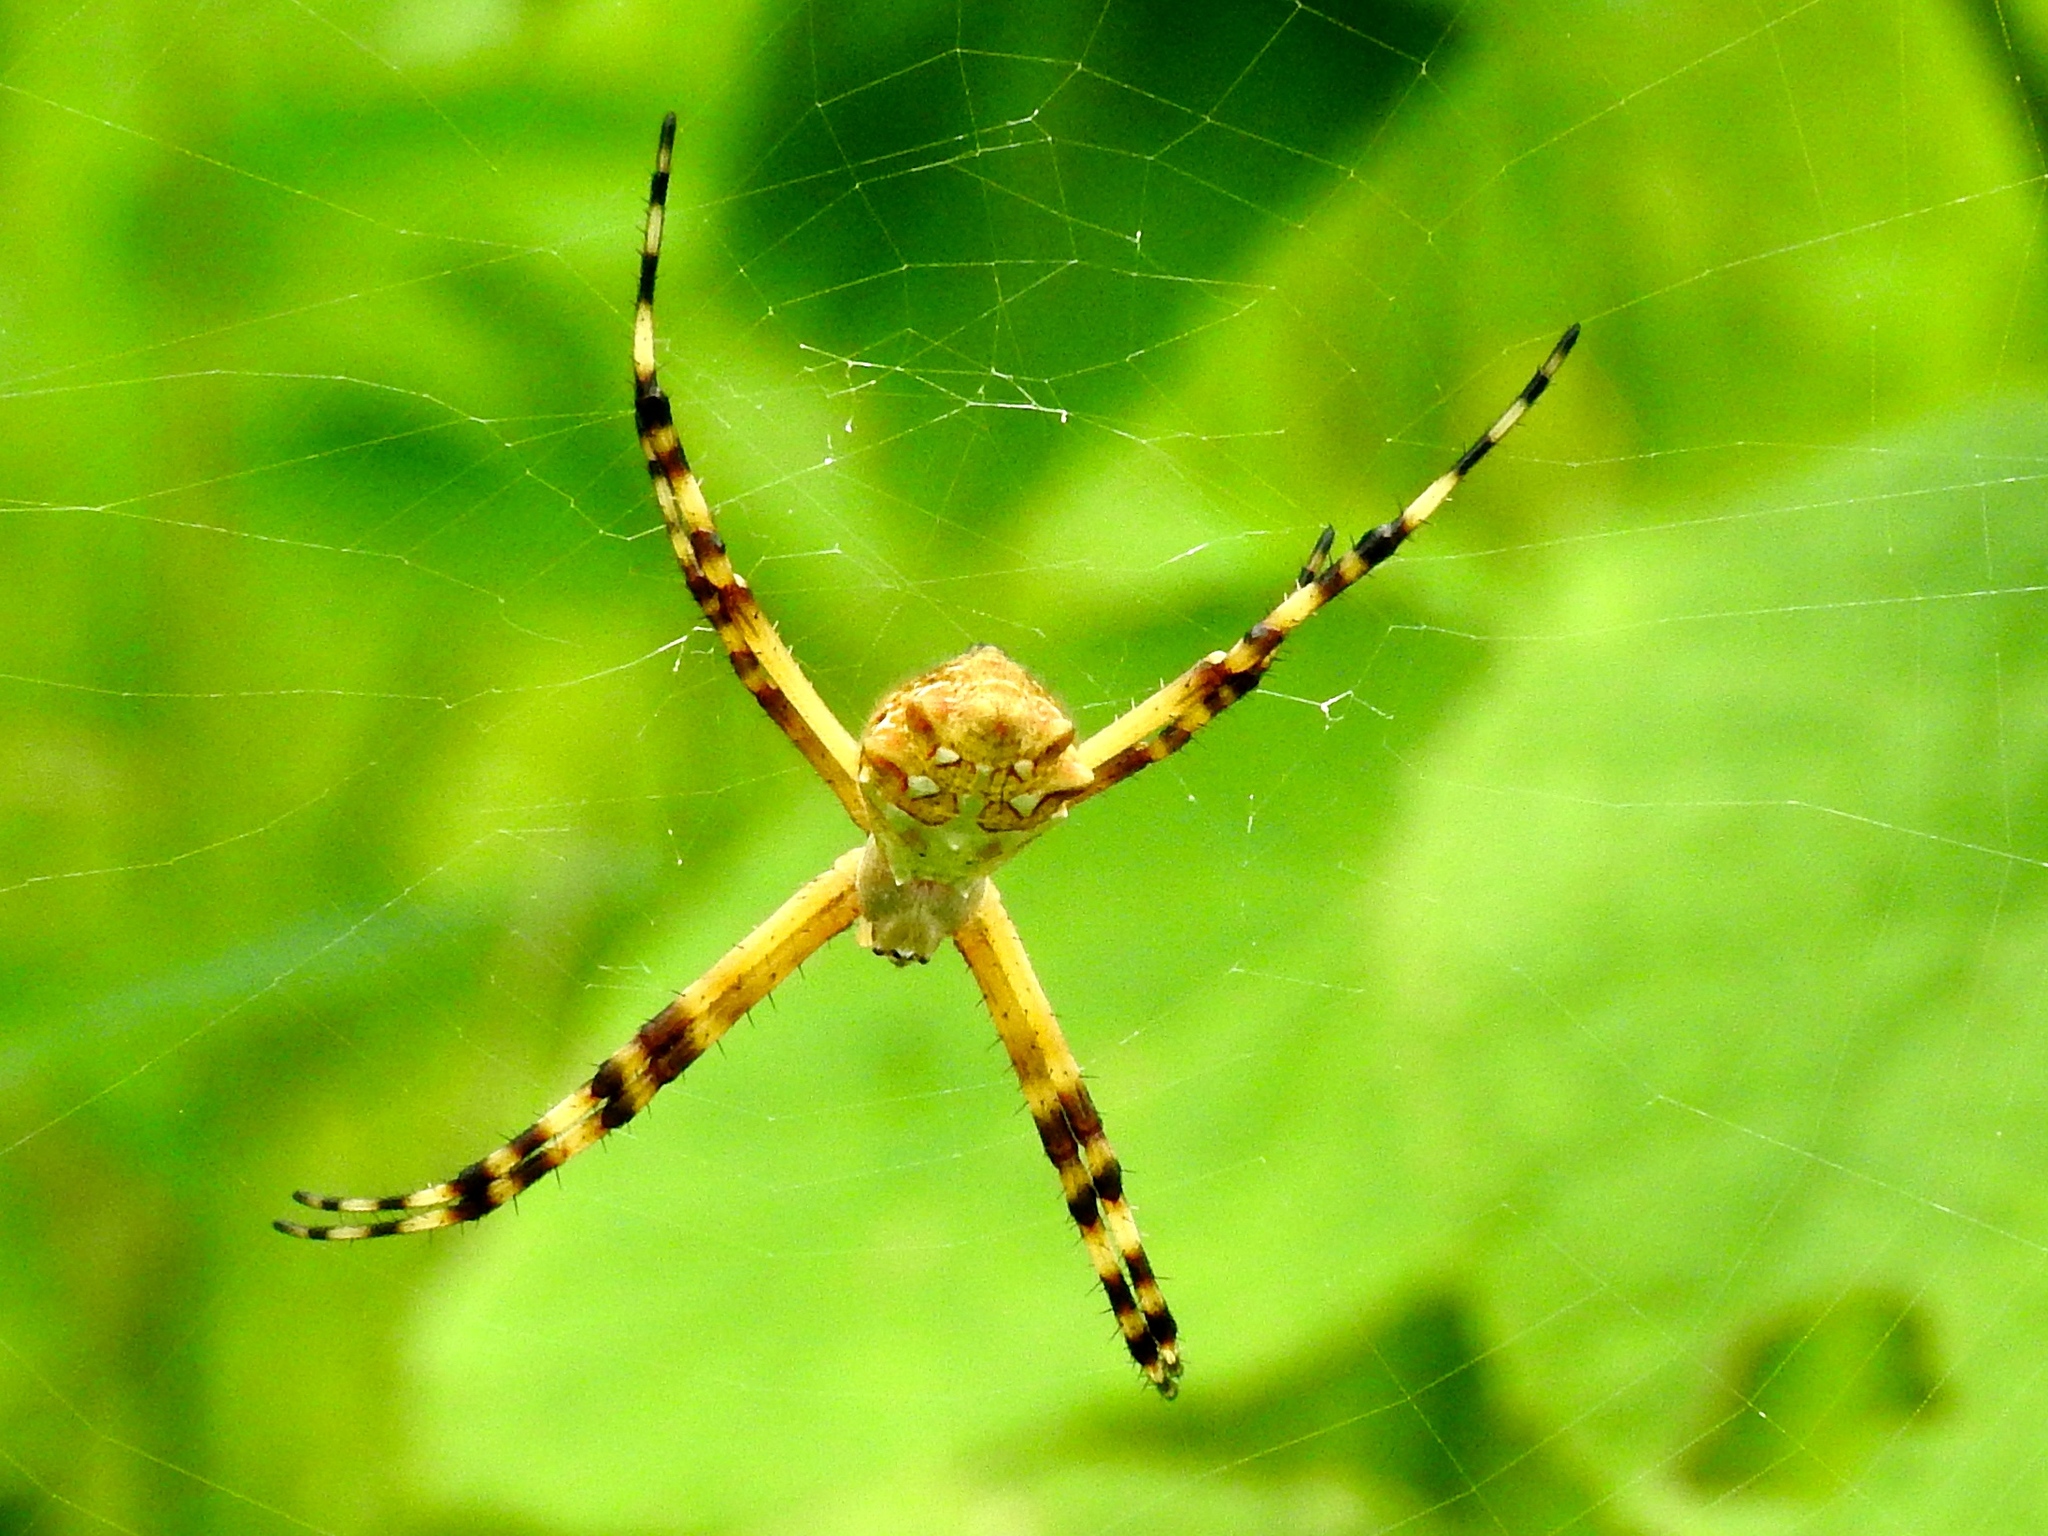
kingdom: Animalia
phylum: Arthropoda
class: Arachnida
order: Araneae
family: Araneidae
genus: Argiope
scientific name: Argiope argentata
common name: Orb weavers
